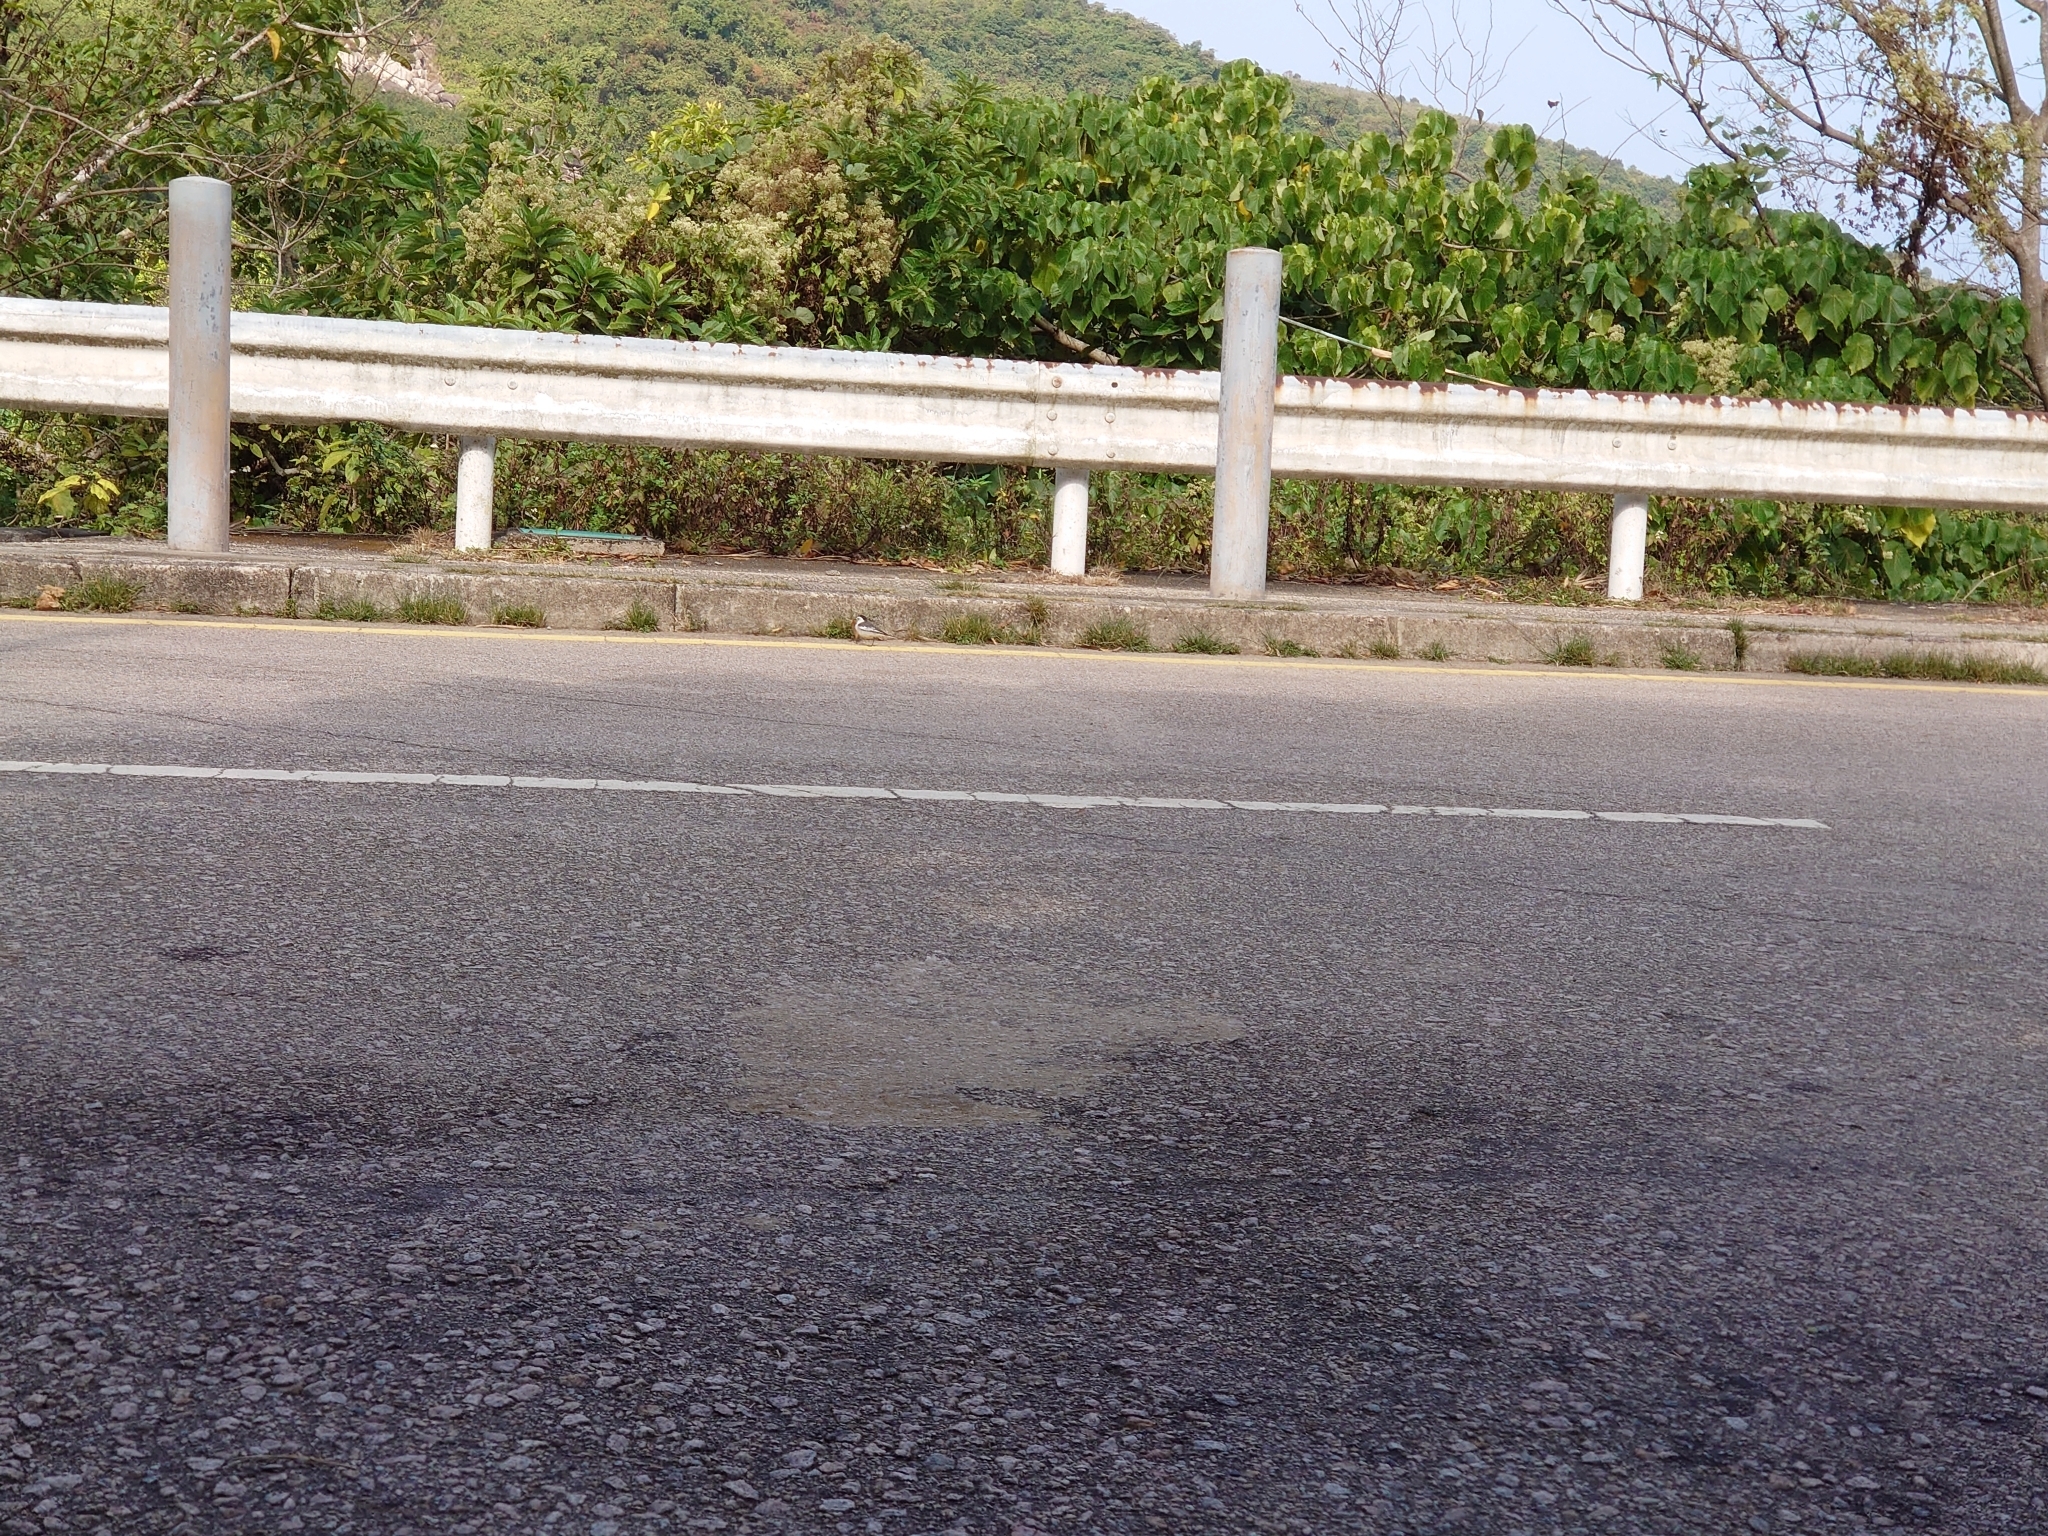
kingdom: Animalia
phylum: Chordata
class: Aves
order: Passeriformes
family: Motacillidae
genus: Motacilla
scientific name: Motacilla alba
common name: White wagtail
